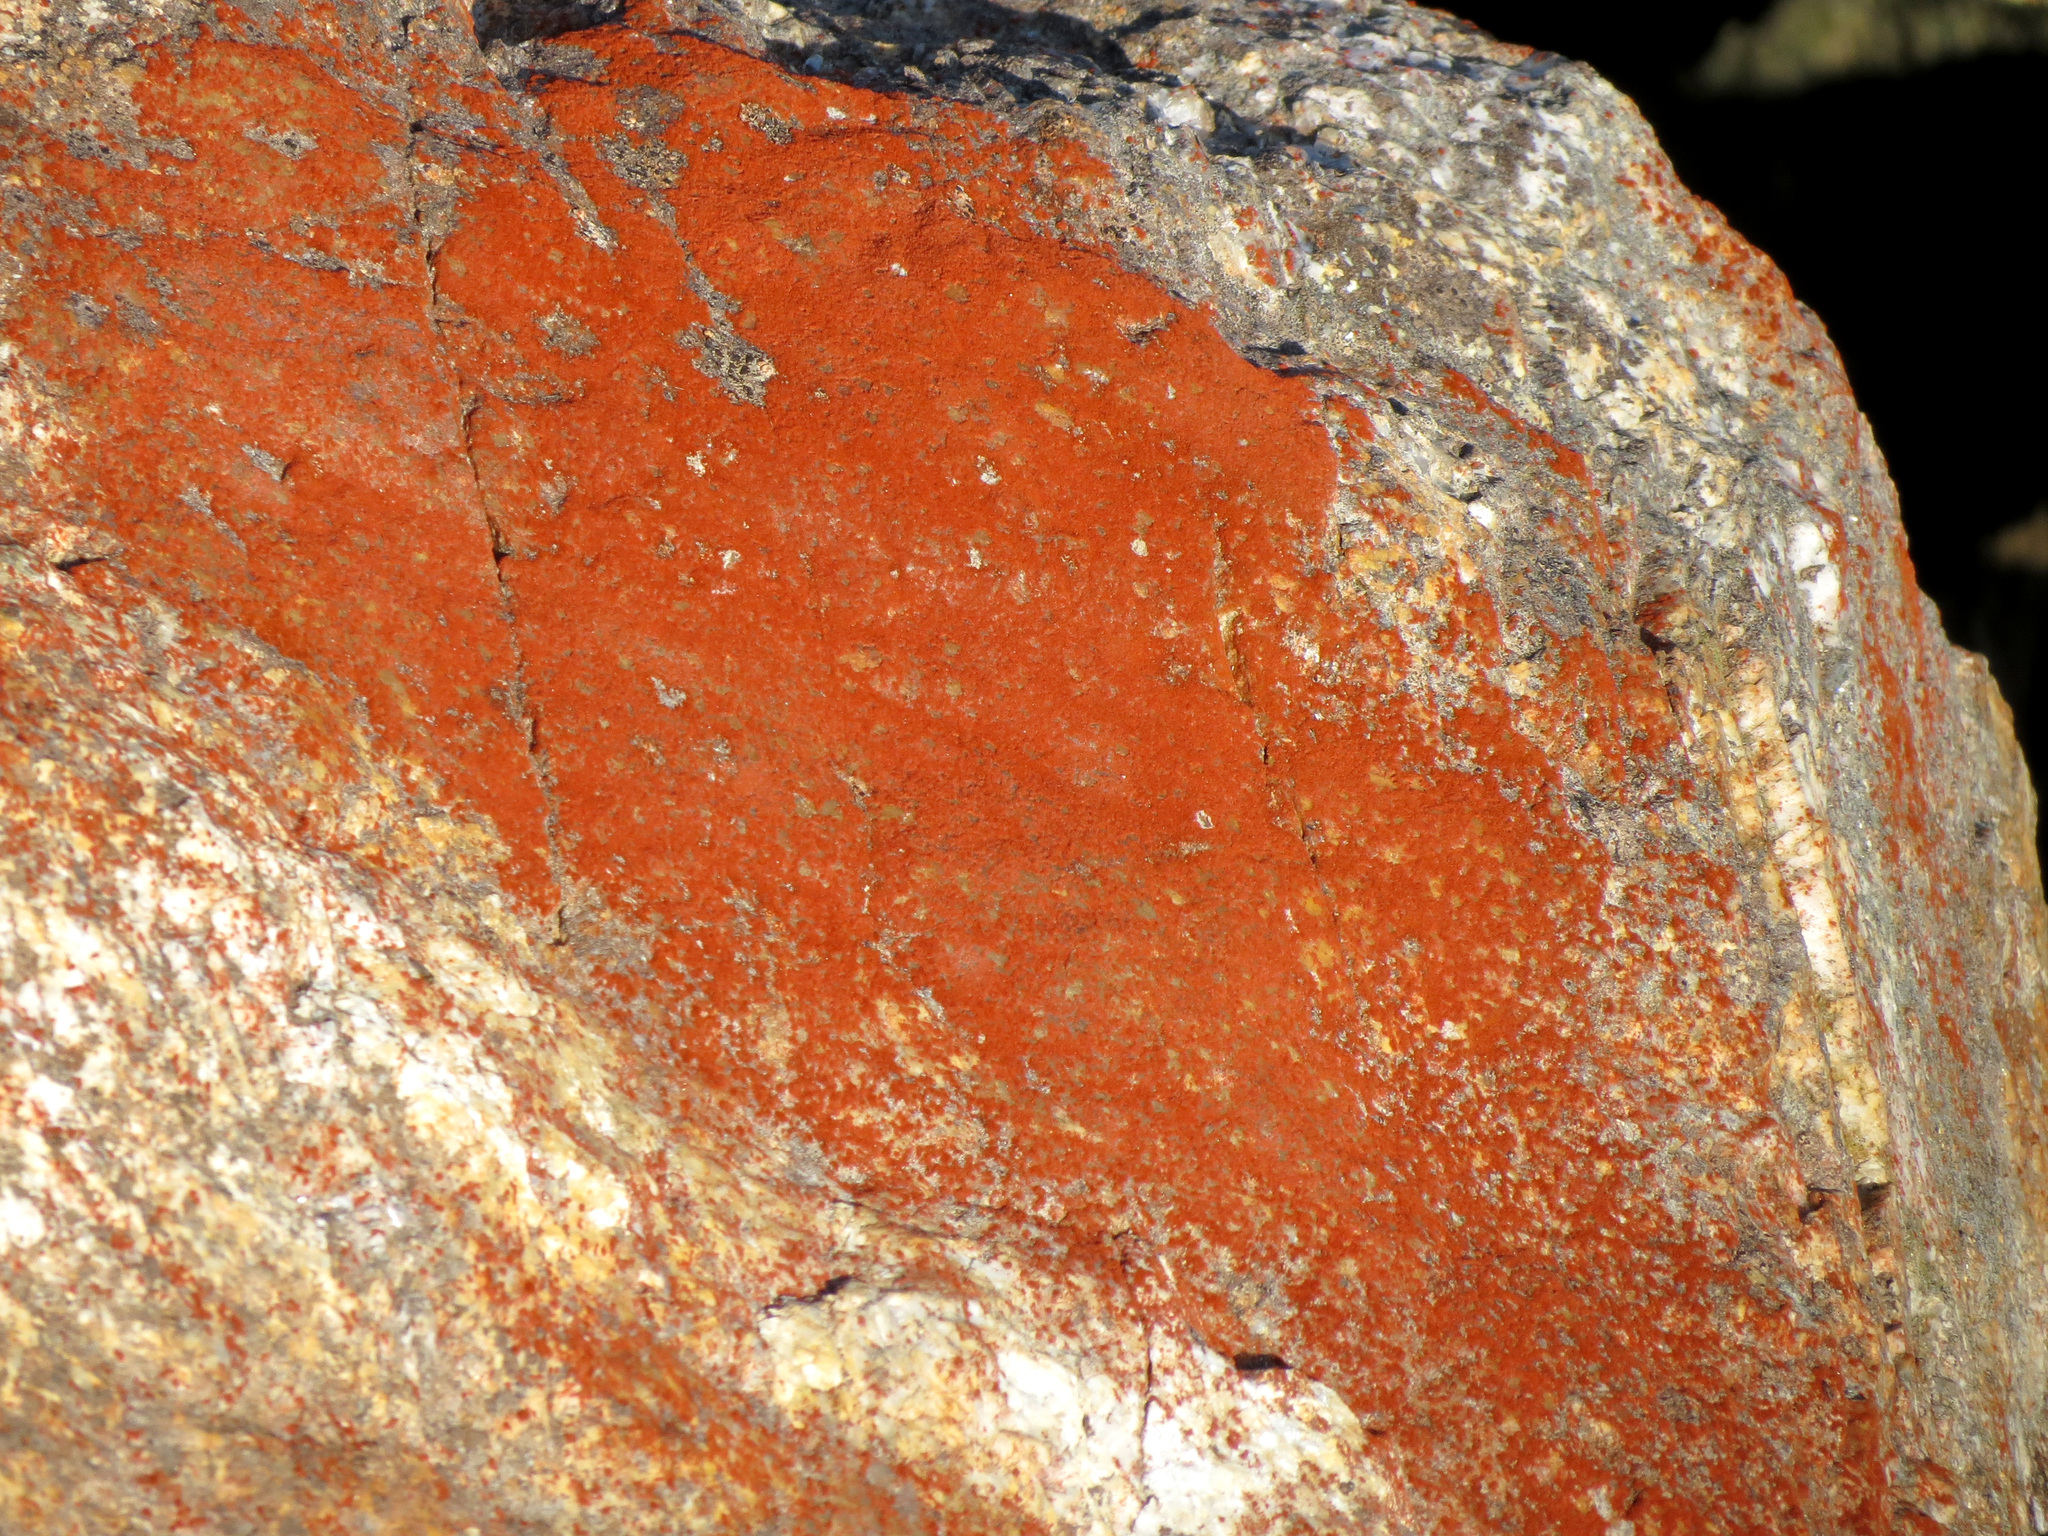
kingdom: Plantae
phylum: Chlorophyta
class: Ulvophyceae
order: Trentepohliales
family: Trentepohliaceae
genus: Trentepohlia
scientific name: Trentepohlia aurea
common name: Orange rock hair
